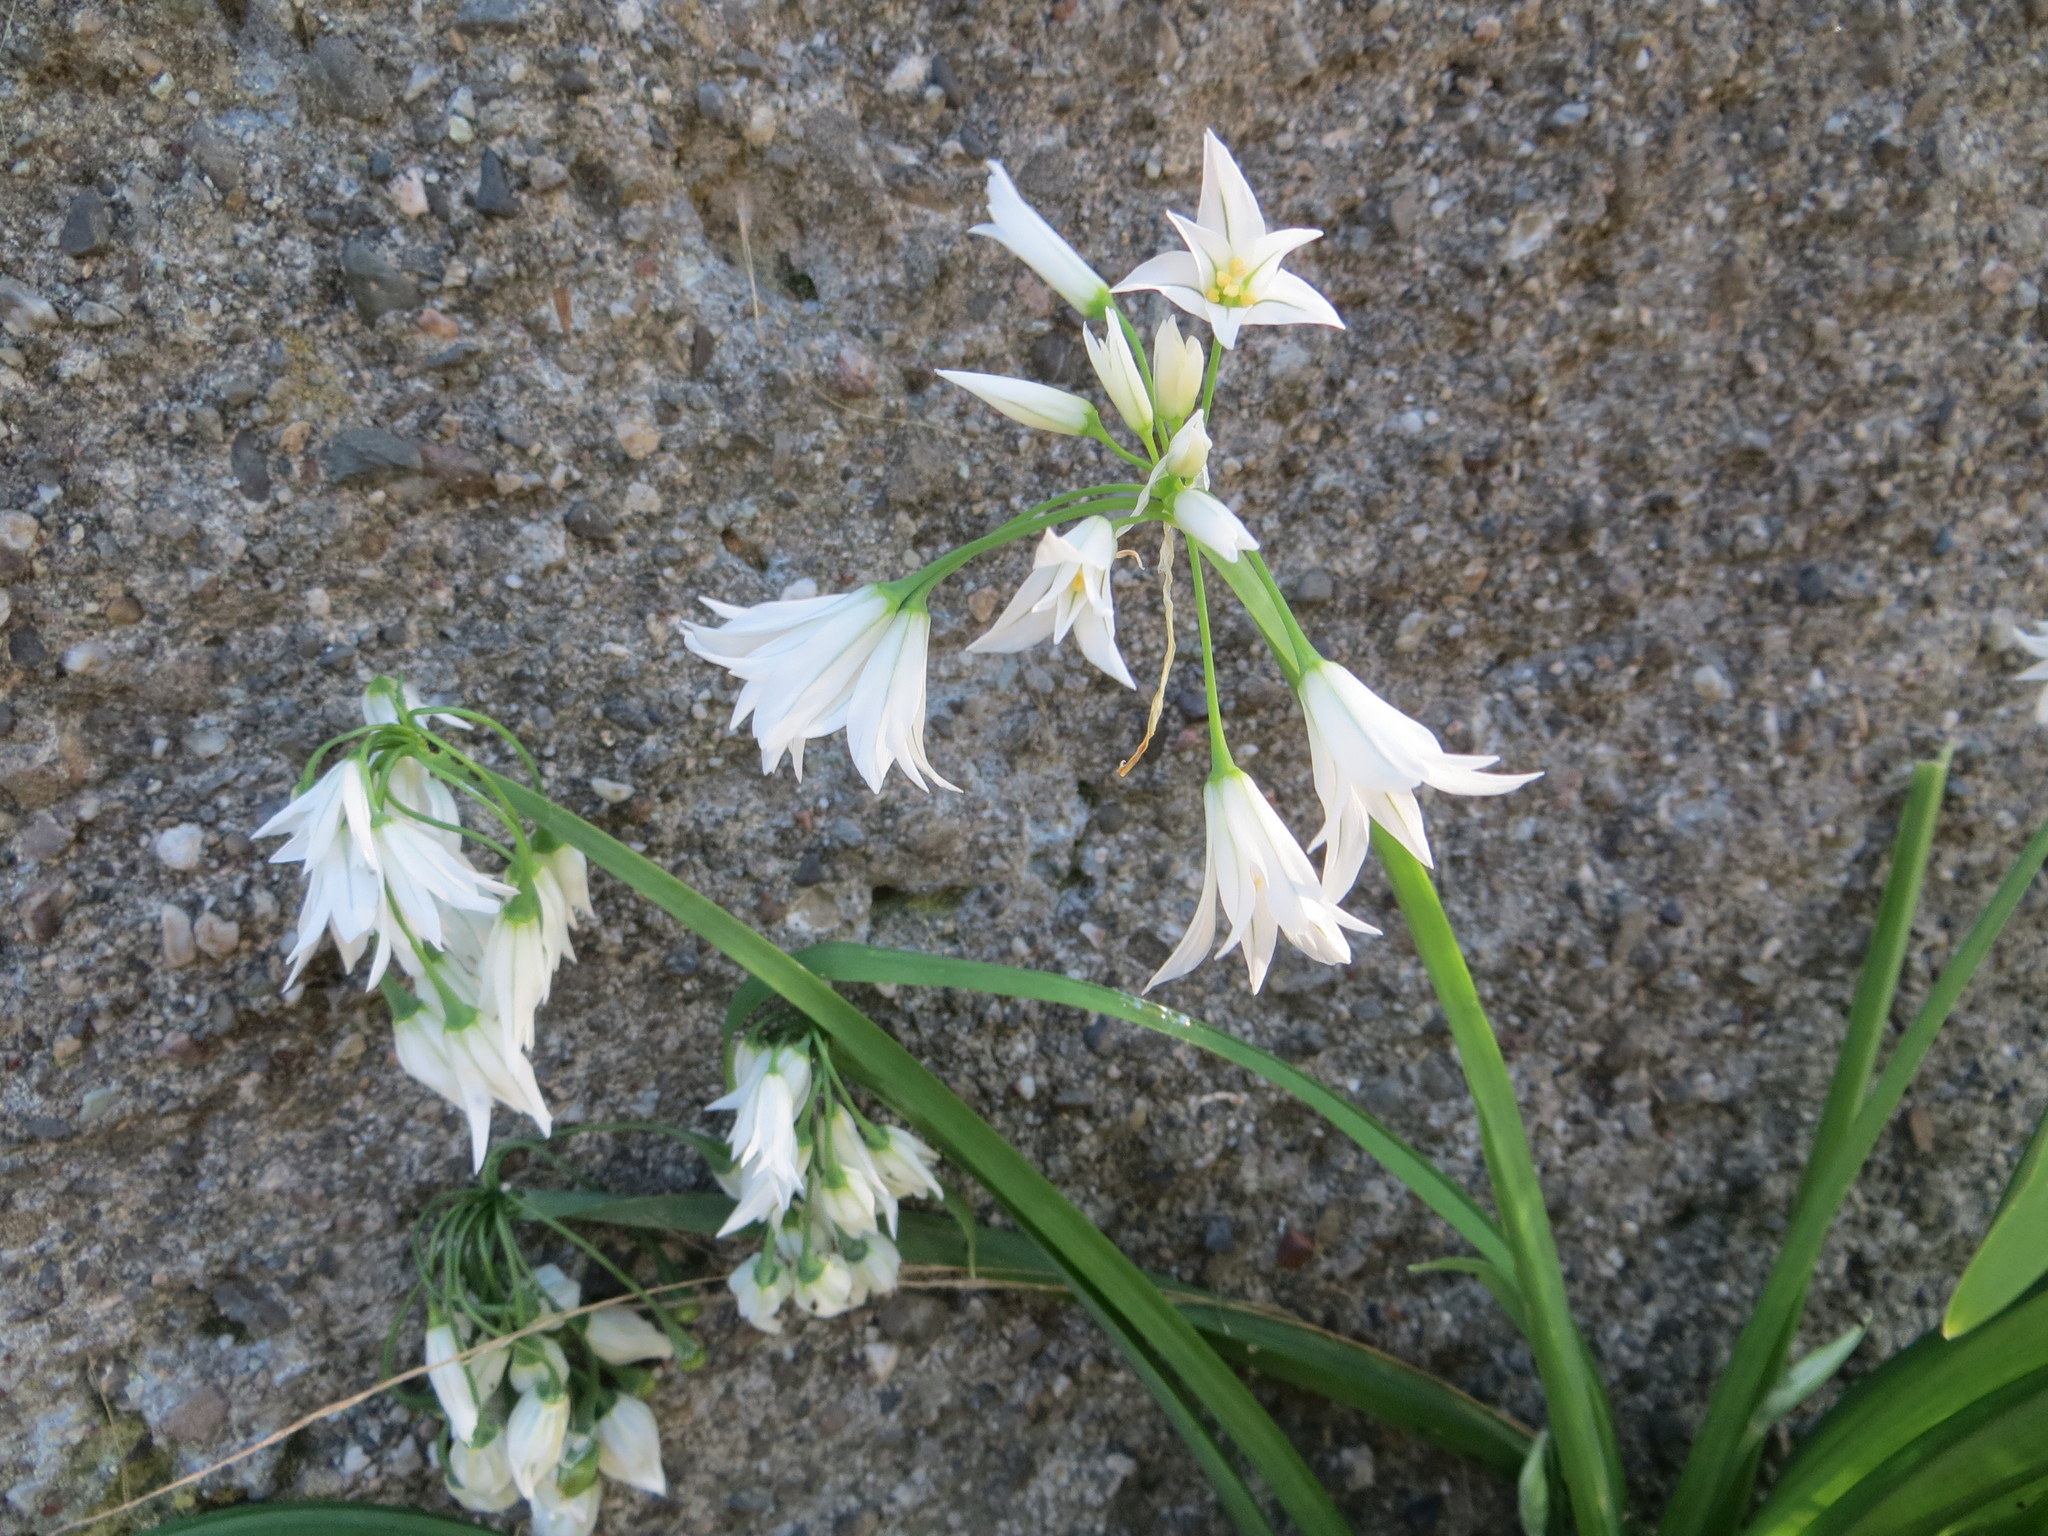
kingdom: Plantae
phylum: Tracheophyta
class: Liliopsida
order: Asparagales
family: Amaryllidaceae
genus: Allium
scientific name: Allium triquetrum
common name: Three-cornered garlic
